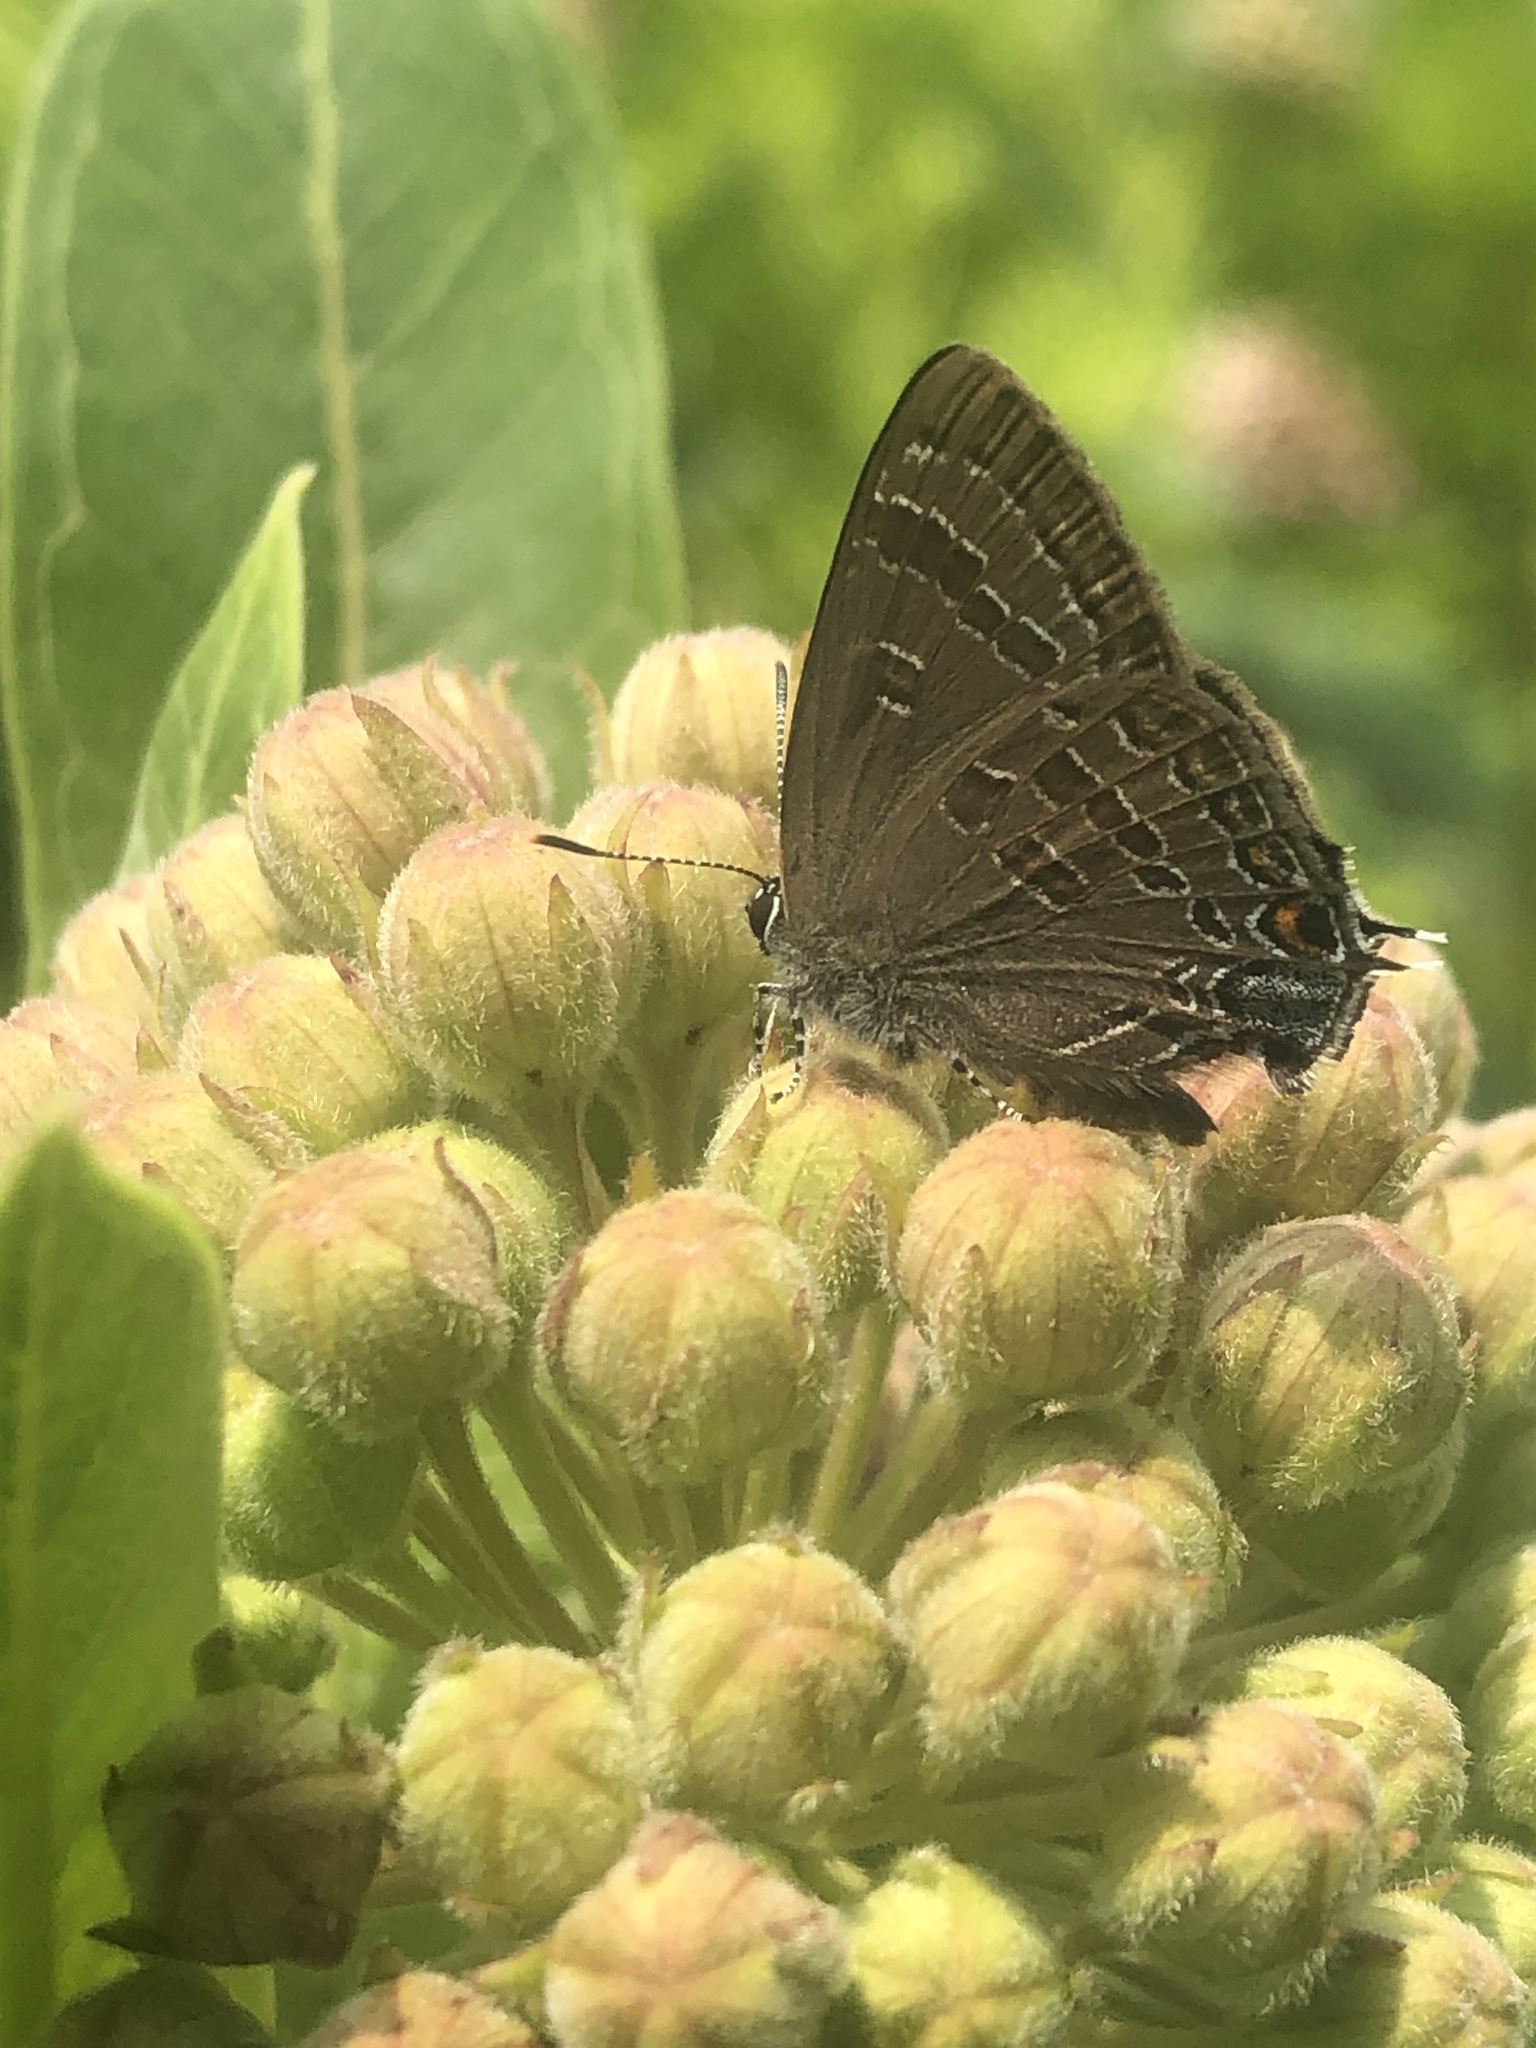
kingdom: Animalia
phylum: Arthropoda
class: Insecta
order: Lepidoptera
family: Lycaenidae
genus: Strymon
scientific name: Strymon caryaevorus
